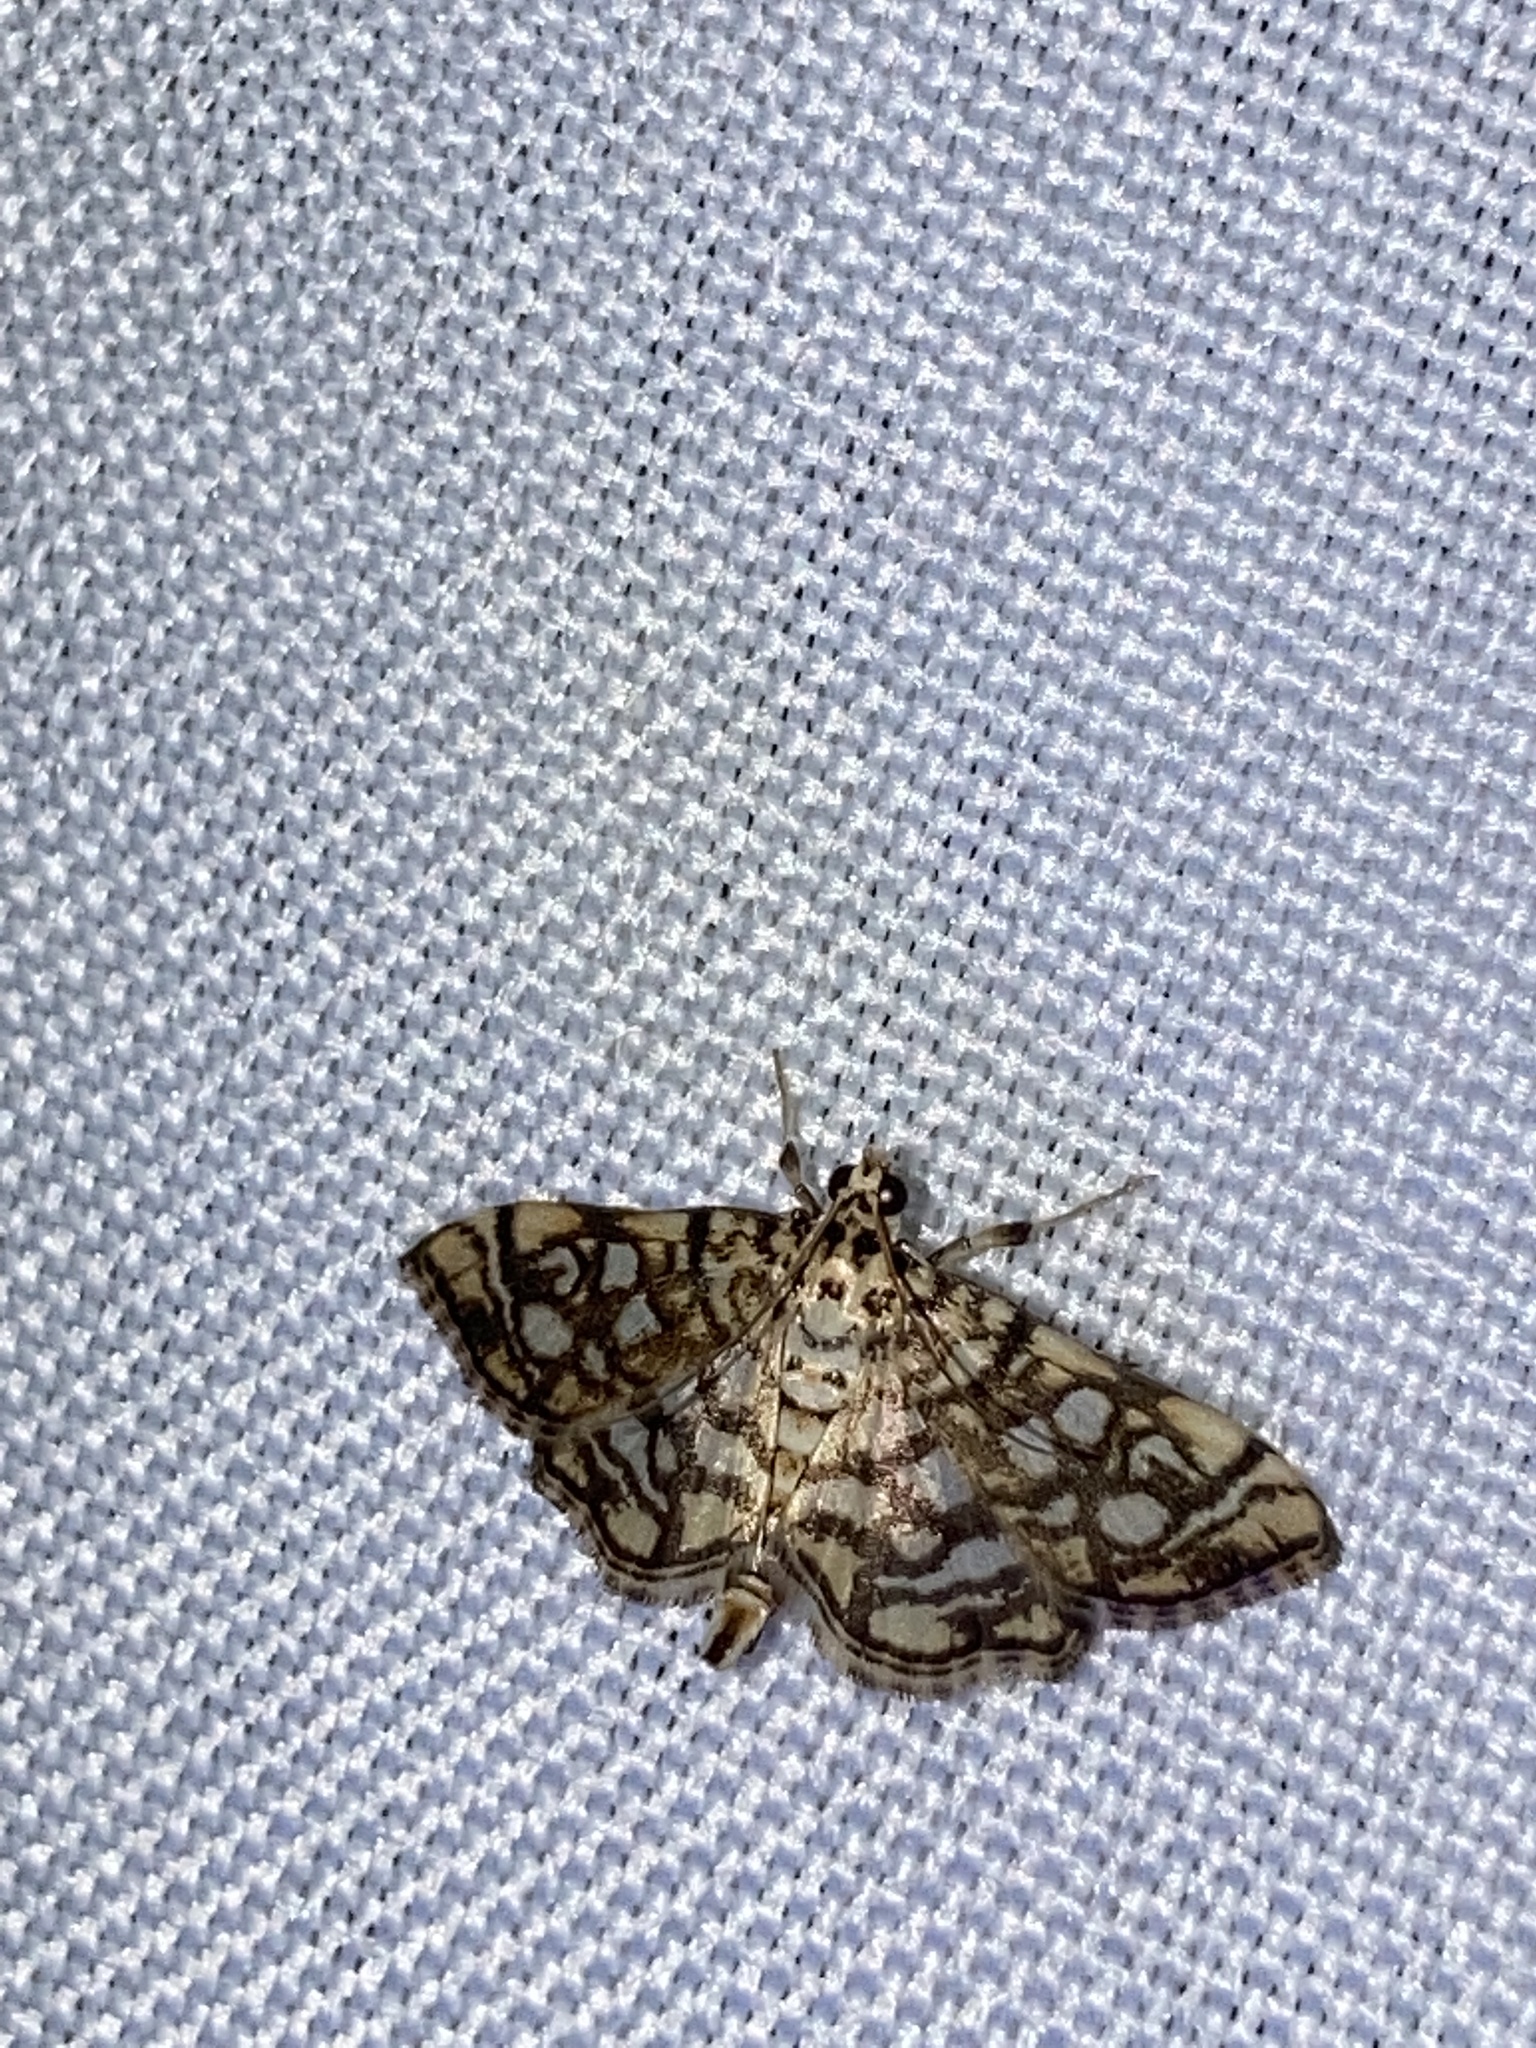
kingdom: Animalia
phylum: Arthropoda
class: Insecta
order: Lepidoptera
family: Crambidae
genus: Lygropia
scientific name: Lygropia rivulalis
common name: Bog lygropia moth
